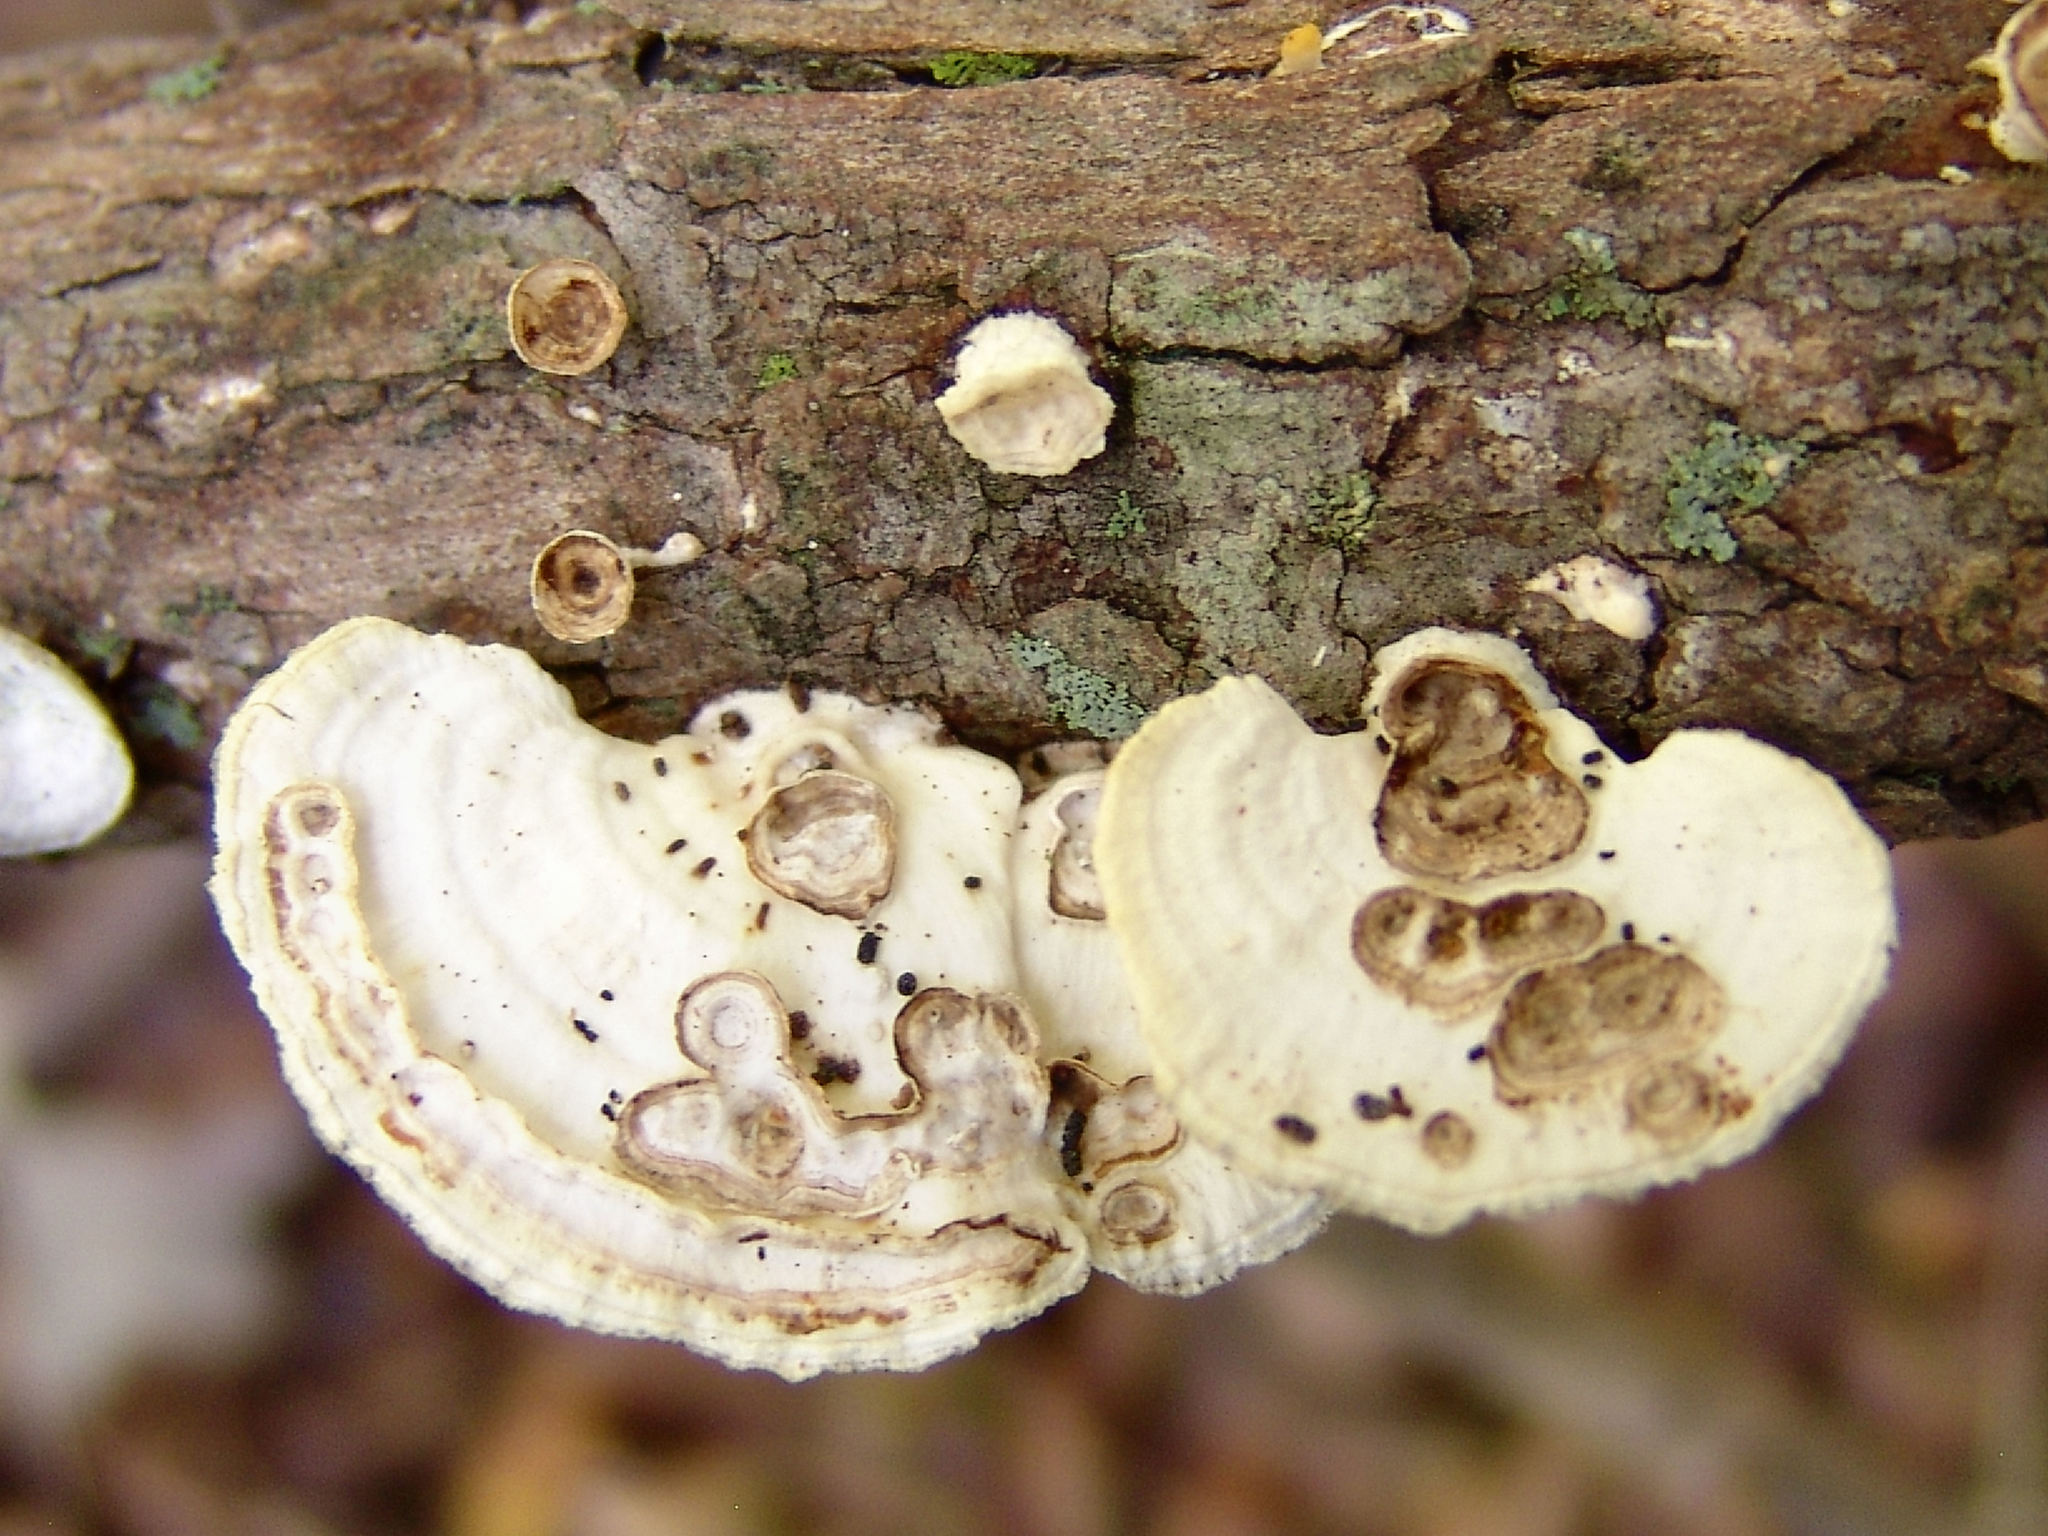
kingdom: Fungi
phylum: Basidiomycota
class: Agaricomycetes
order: Polyporales
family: Polyporaceae
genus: Poronidulus
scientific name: Poronidulus conchifer
